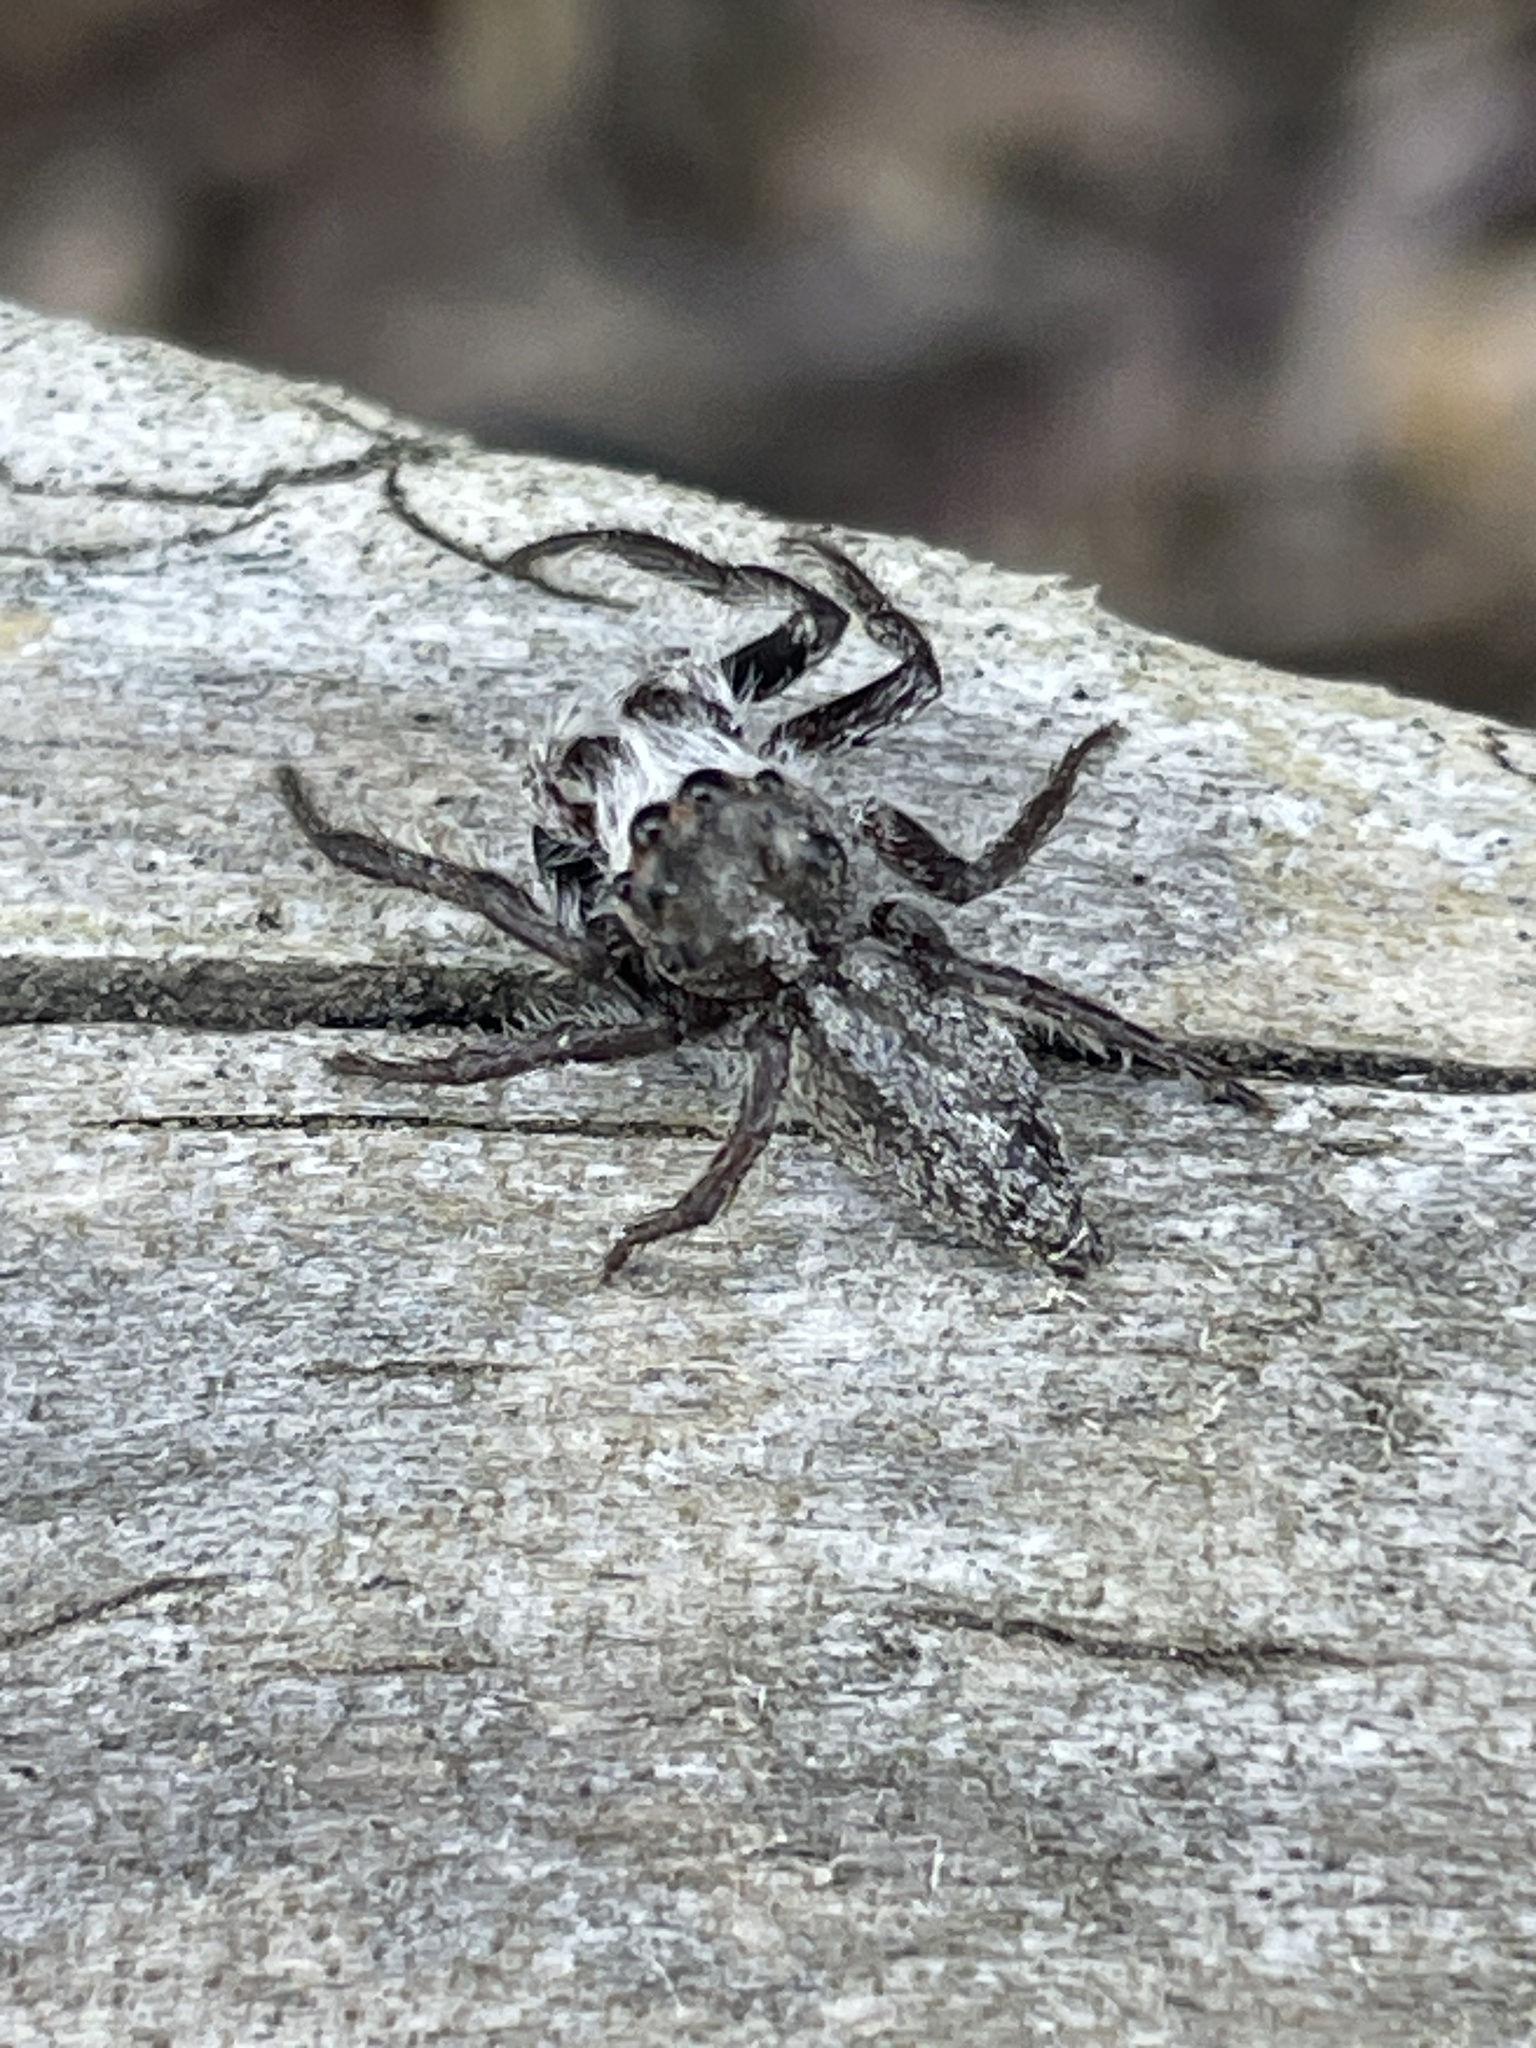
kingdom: Animalia
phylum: Arthropoda
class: Arachnida
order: Araneae
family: Salticidae
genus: Cytaea
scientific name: Cytaea aspera
